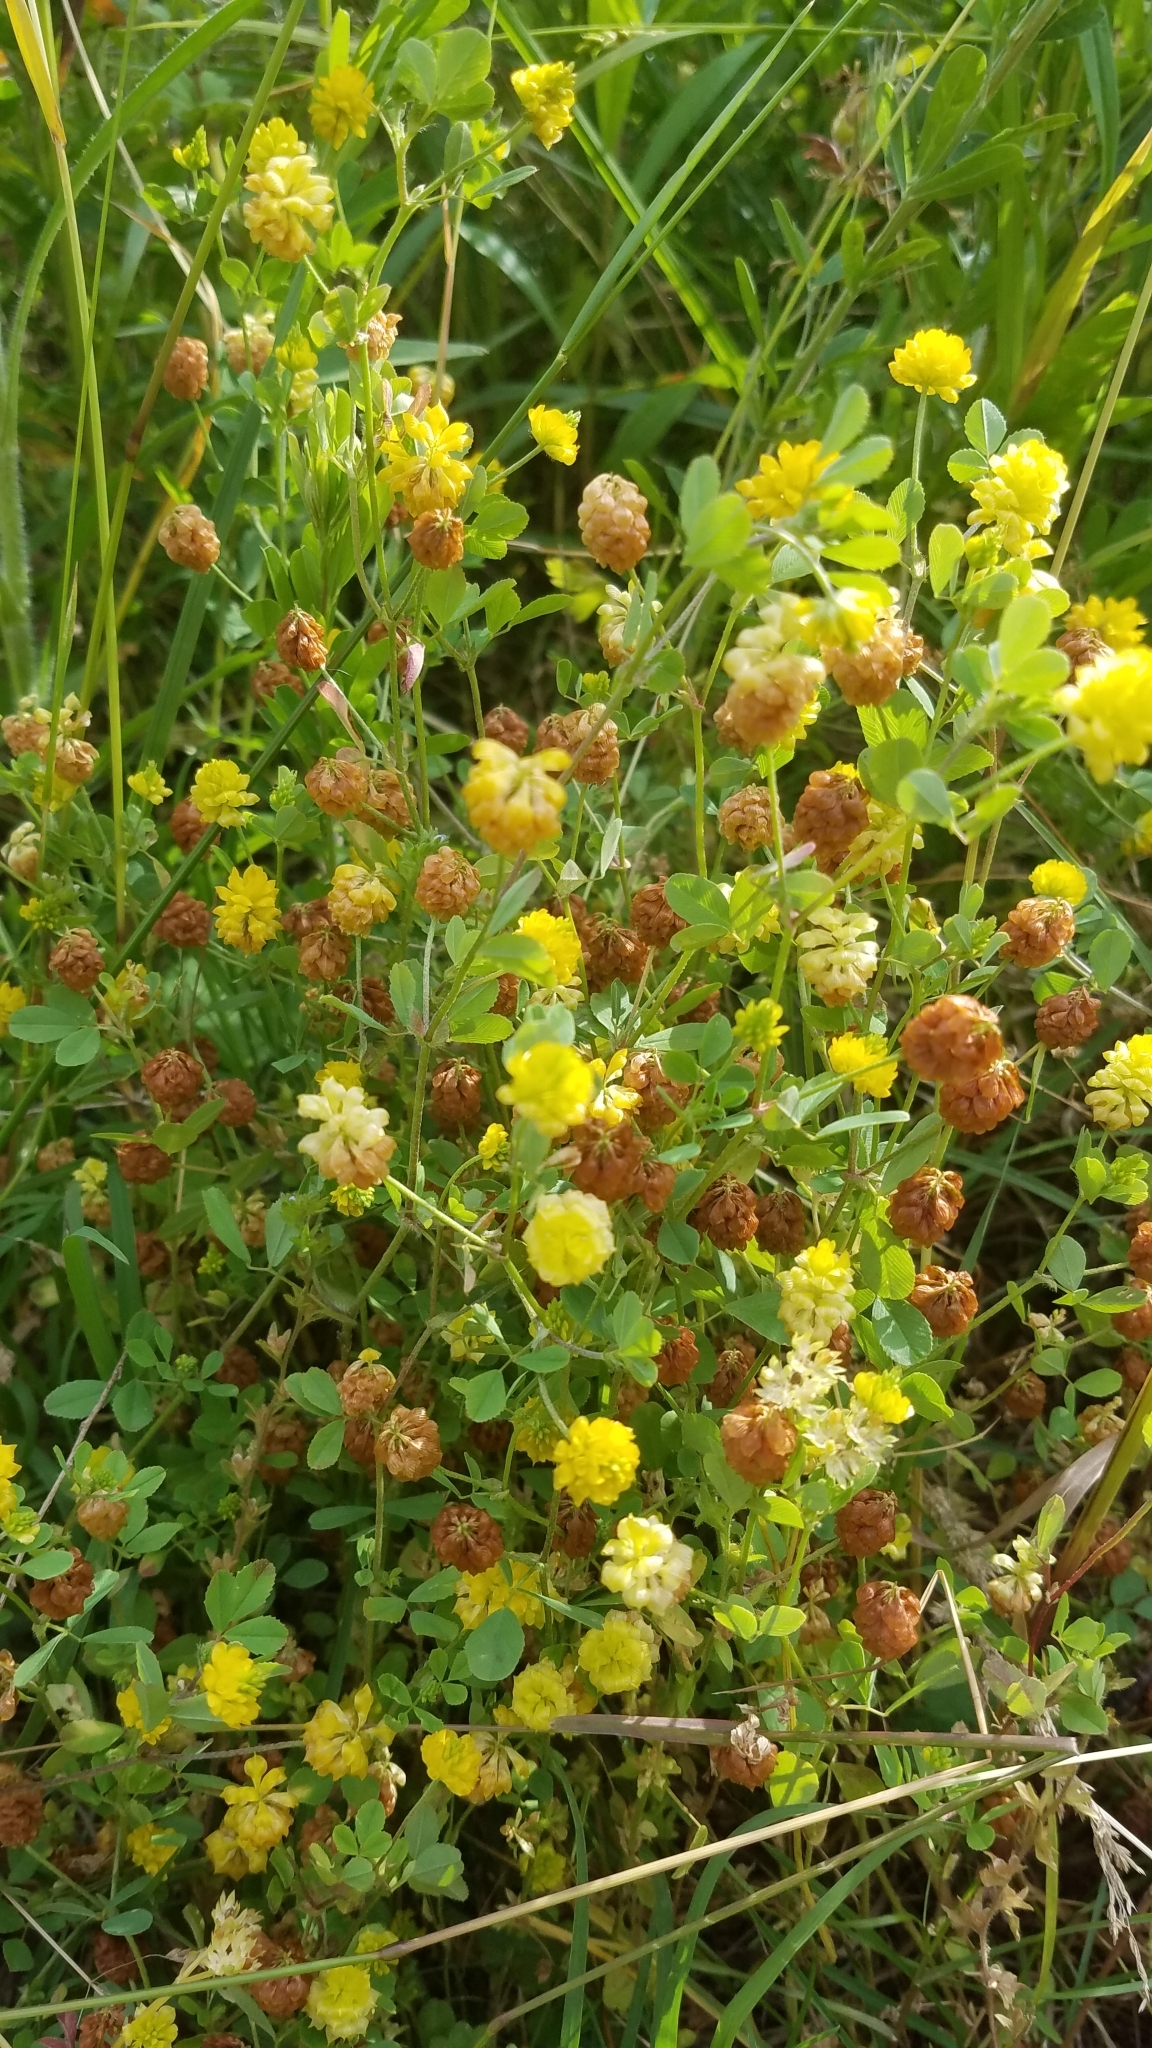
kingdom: Plantae
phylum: Tracheophyta
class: Magnoliopsida
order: Fabales
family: Fabaceae
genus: Trifolium
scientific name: Trifolium campestre
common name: Field clover
